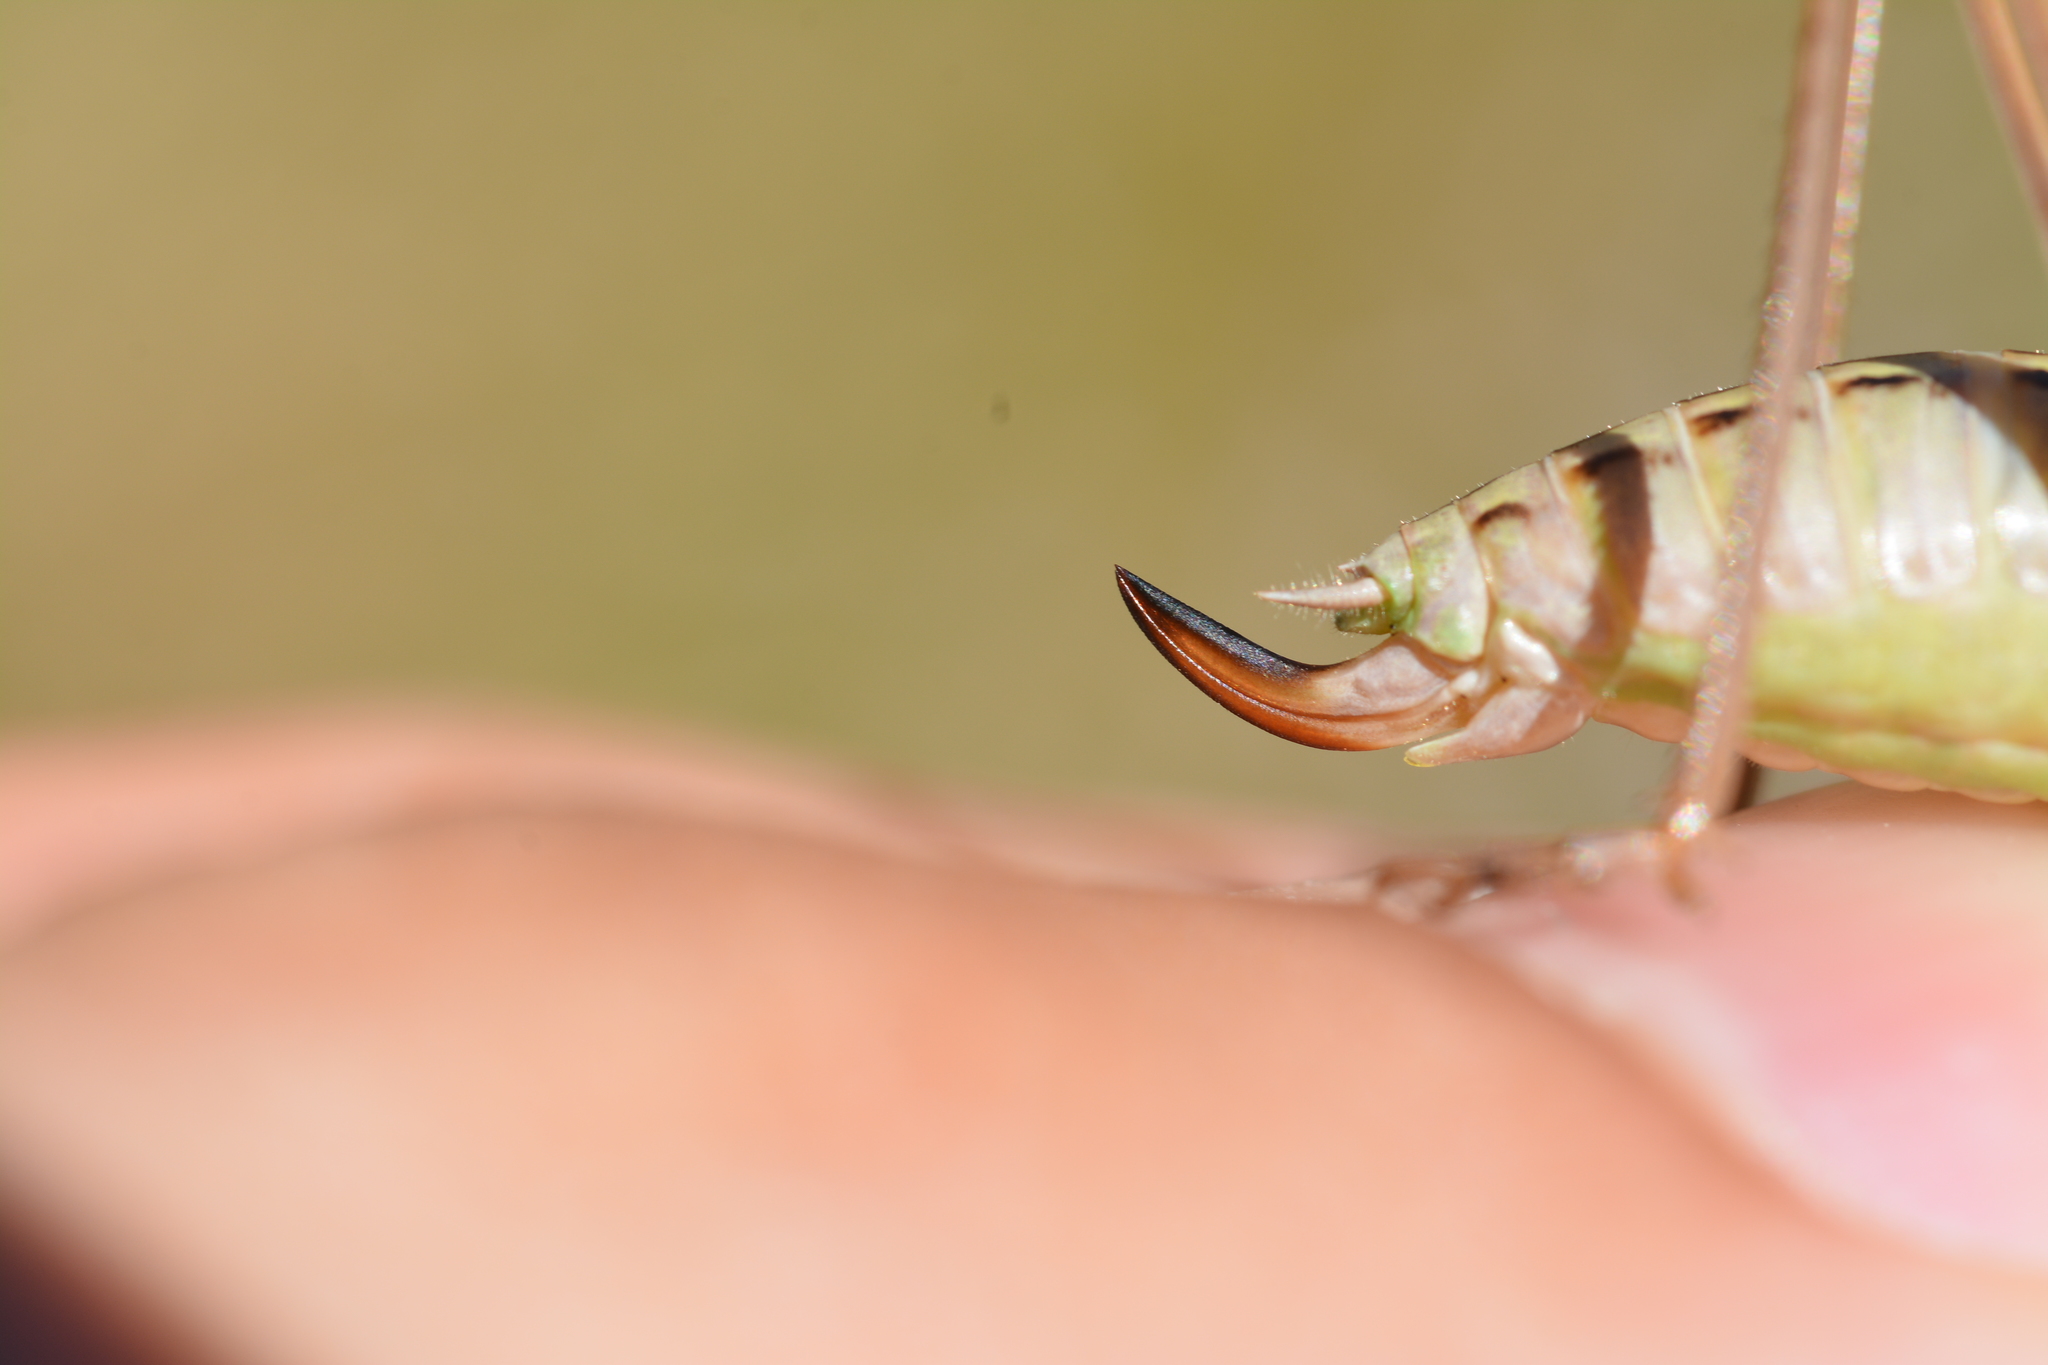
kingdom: Animalia
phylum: Arthropoda
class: Insecta
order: Orthoptera
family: Tettigoniidae
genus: Bicolorana
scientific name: Bicolorana bicolor
